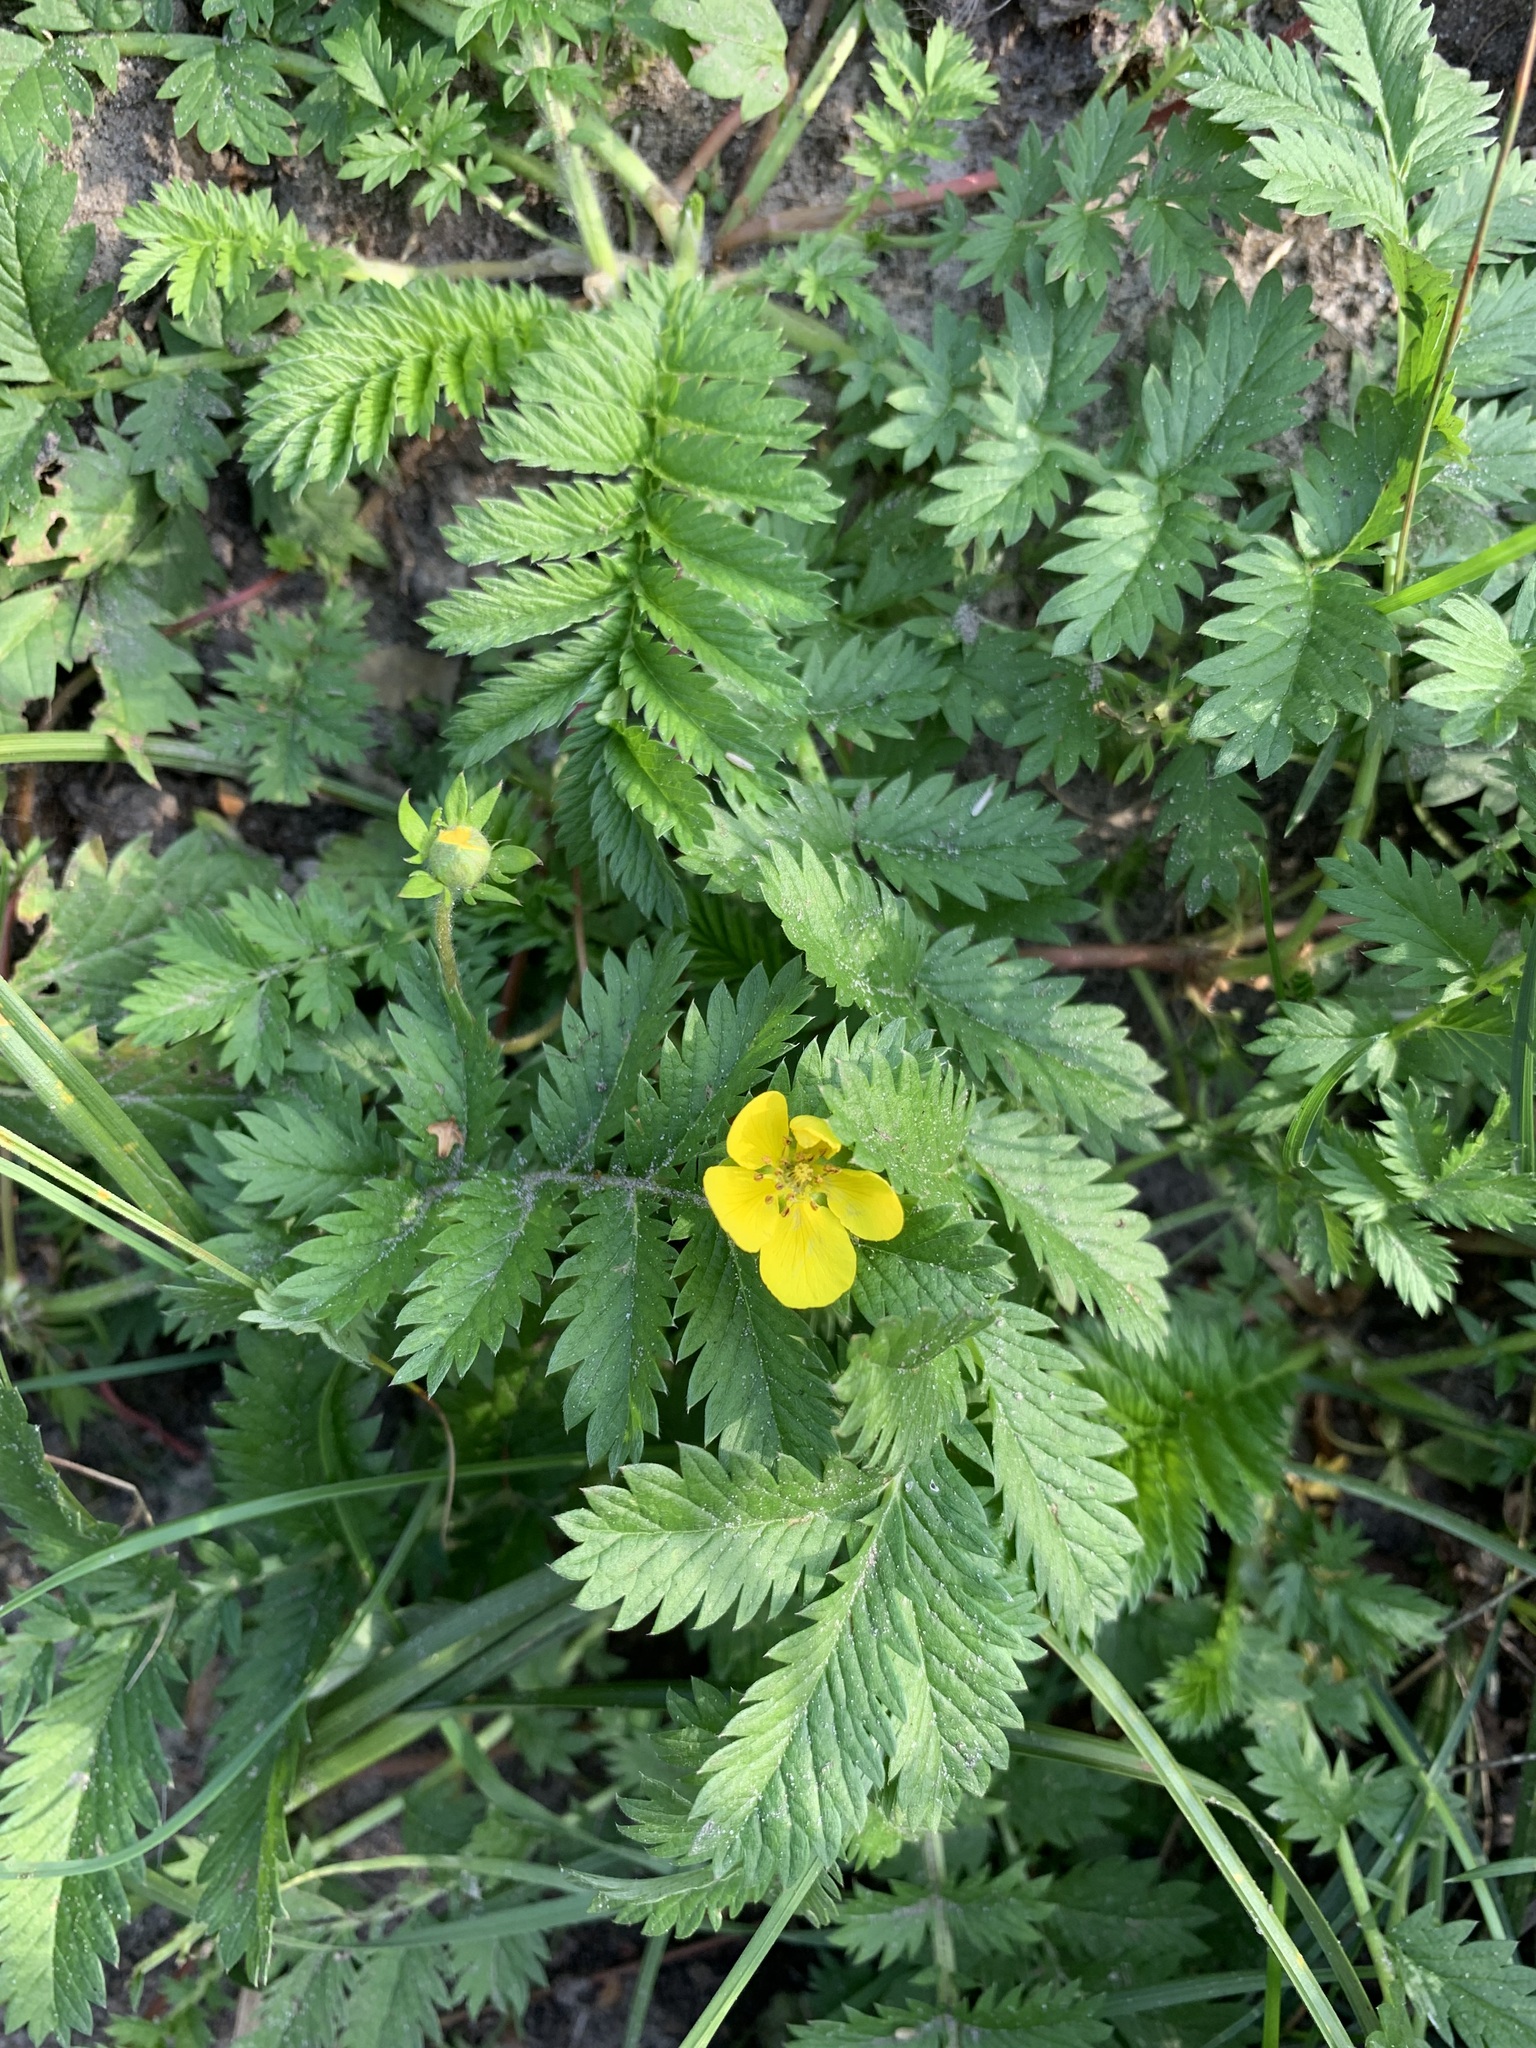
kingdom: Plantae
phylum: Tracheophyta
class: Magnoliopsida
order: Rosales
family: Rosaceae
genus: Argentina
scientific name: Argentina anserina
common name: Common silverweed
